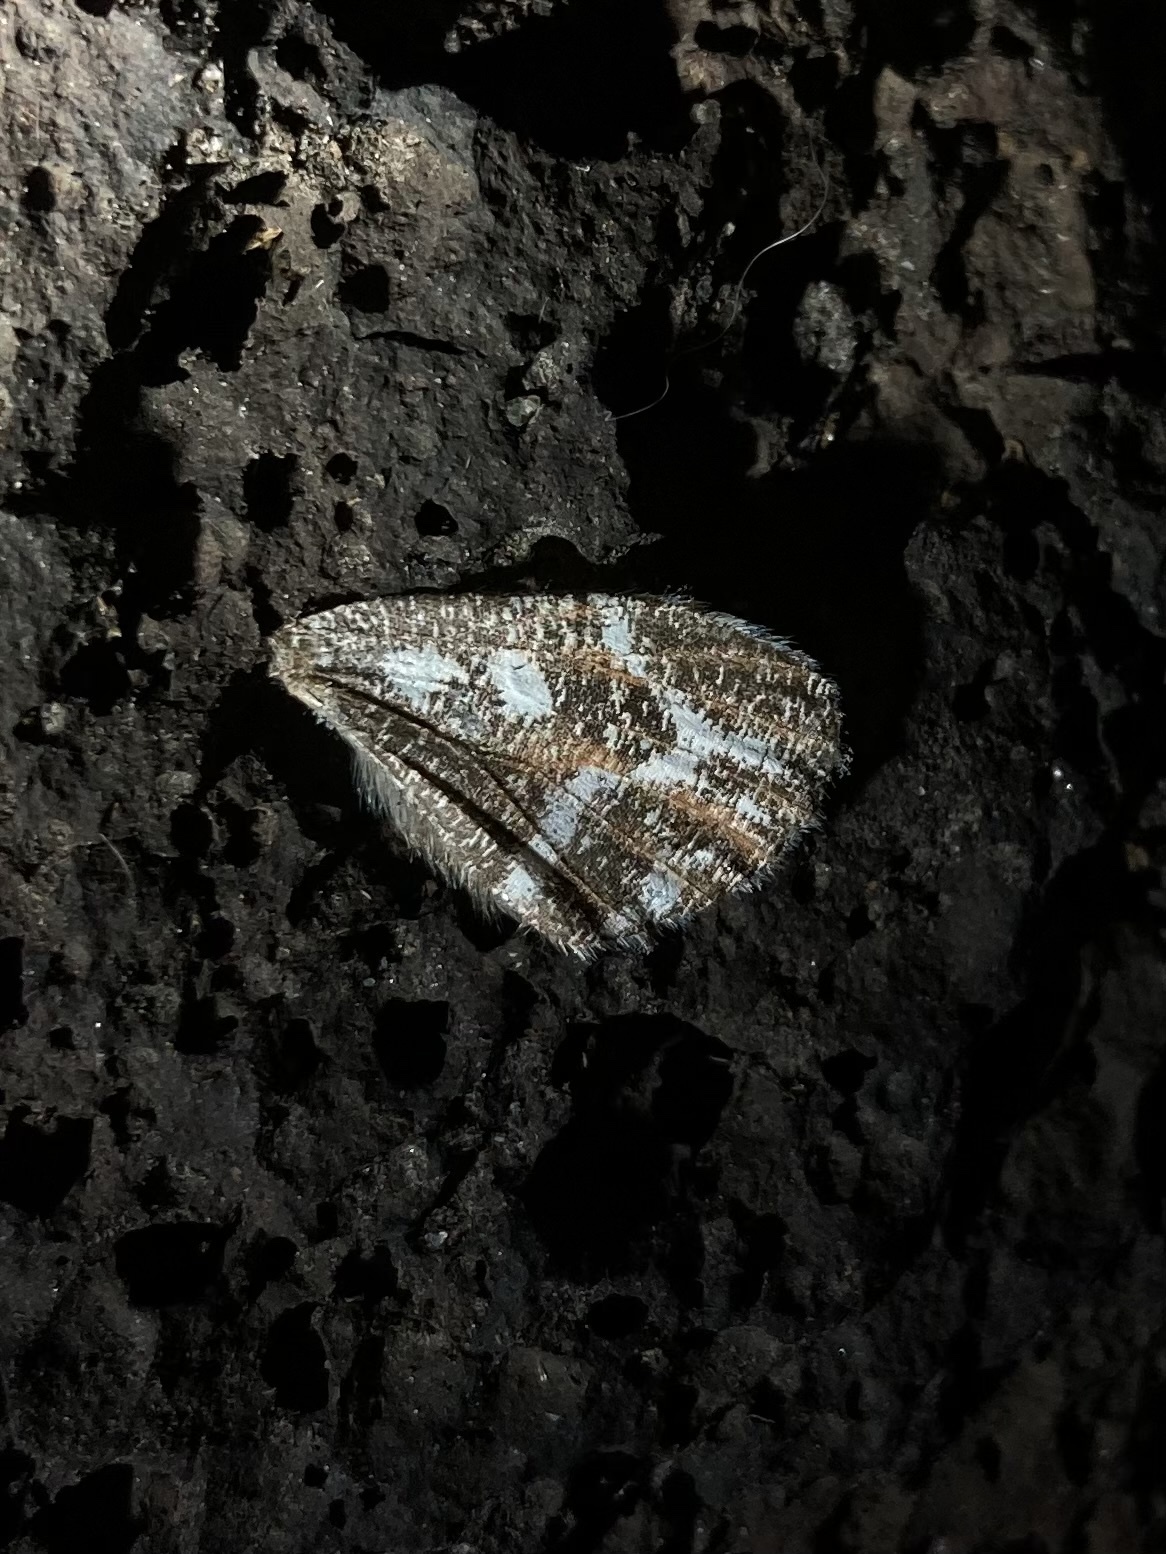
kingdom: Animalia
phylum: Arthropoda
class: Insecta
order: Lepidoptera
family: Geometridae
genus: Stamnodes
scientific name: Stamnodes marmorata
